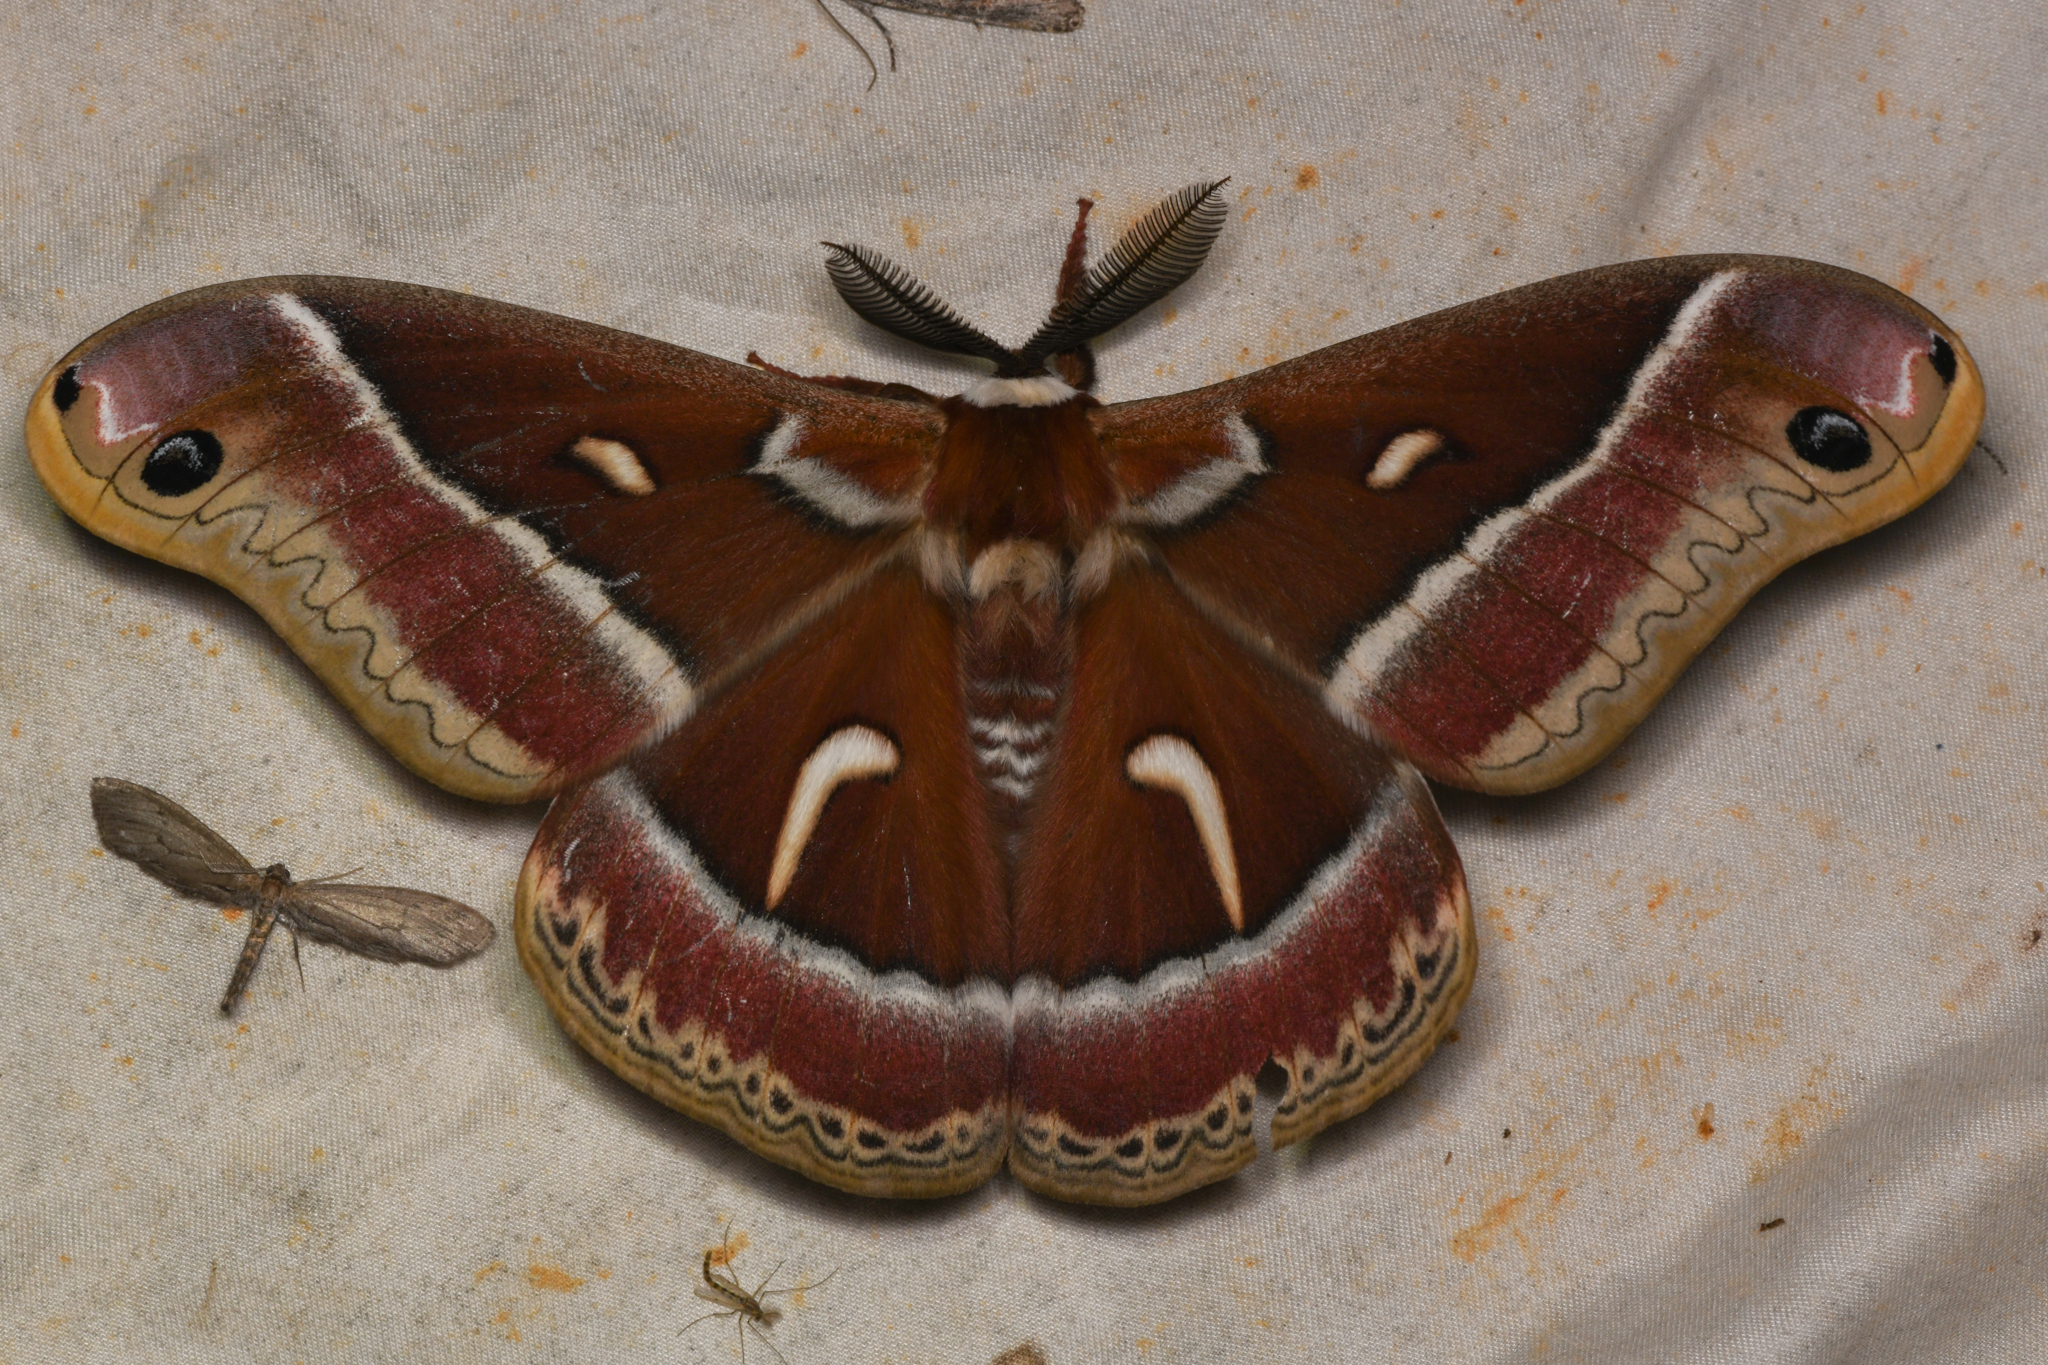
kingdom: Animalia
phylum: Arthropoda
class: Insecta
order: Lepidoptera
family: Saturniidae
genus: Hyalophora
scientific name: Hyalophora euryalus
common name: Ceanothus silkmoth
